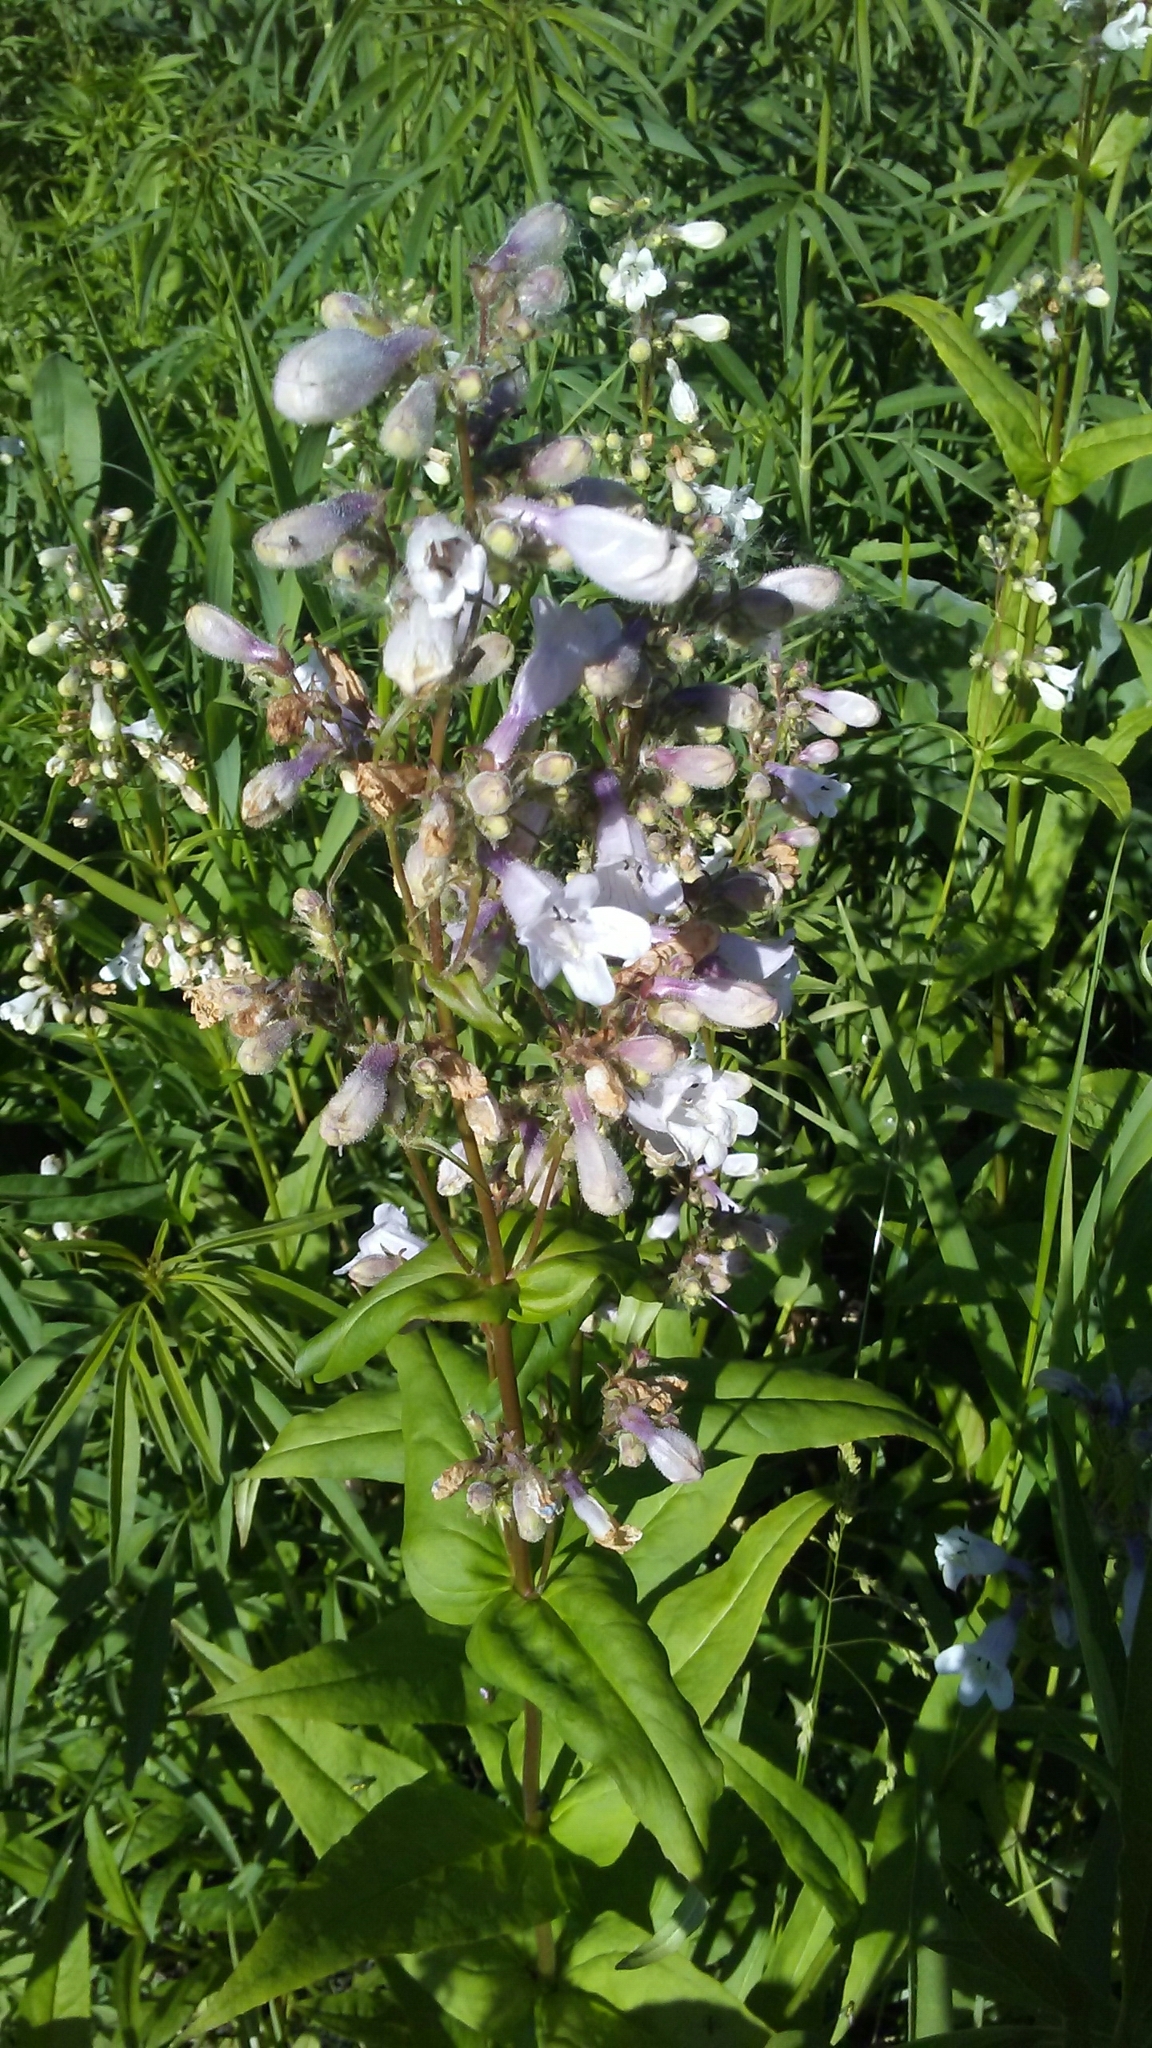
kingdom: Plantae
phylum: Tracheophyta
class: Magnoliopsida
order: Lamiales
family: Plantaginaceae
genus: Penstemon
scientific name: Penstemon digitalis
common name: Foxglove beardtongue
